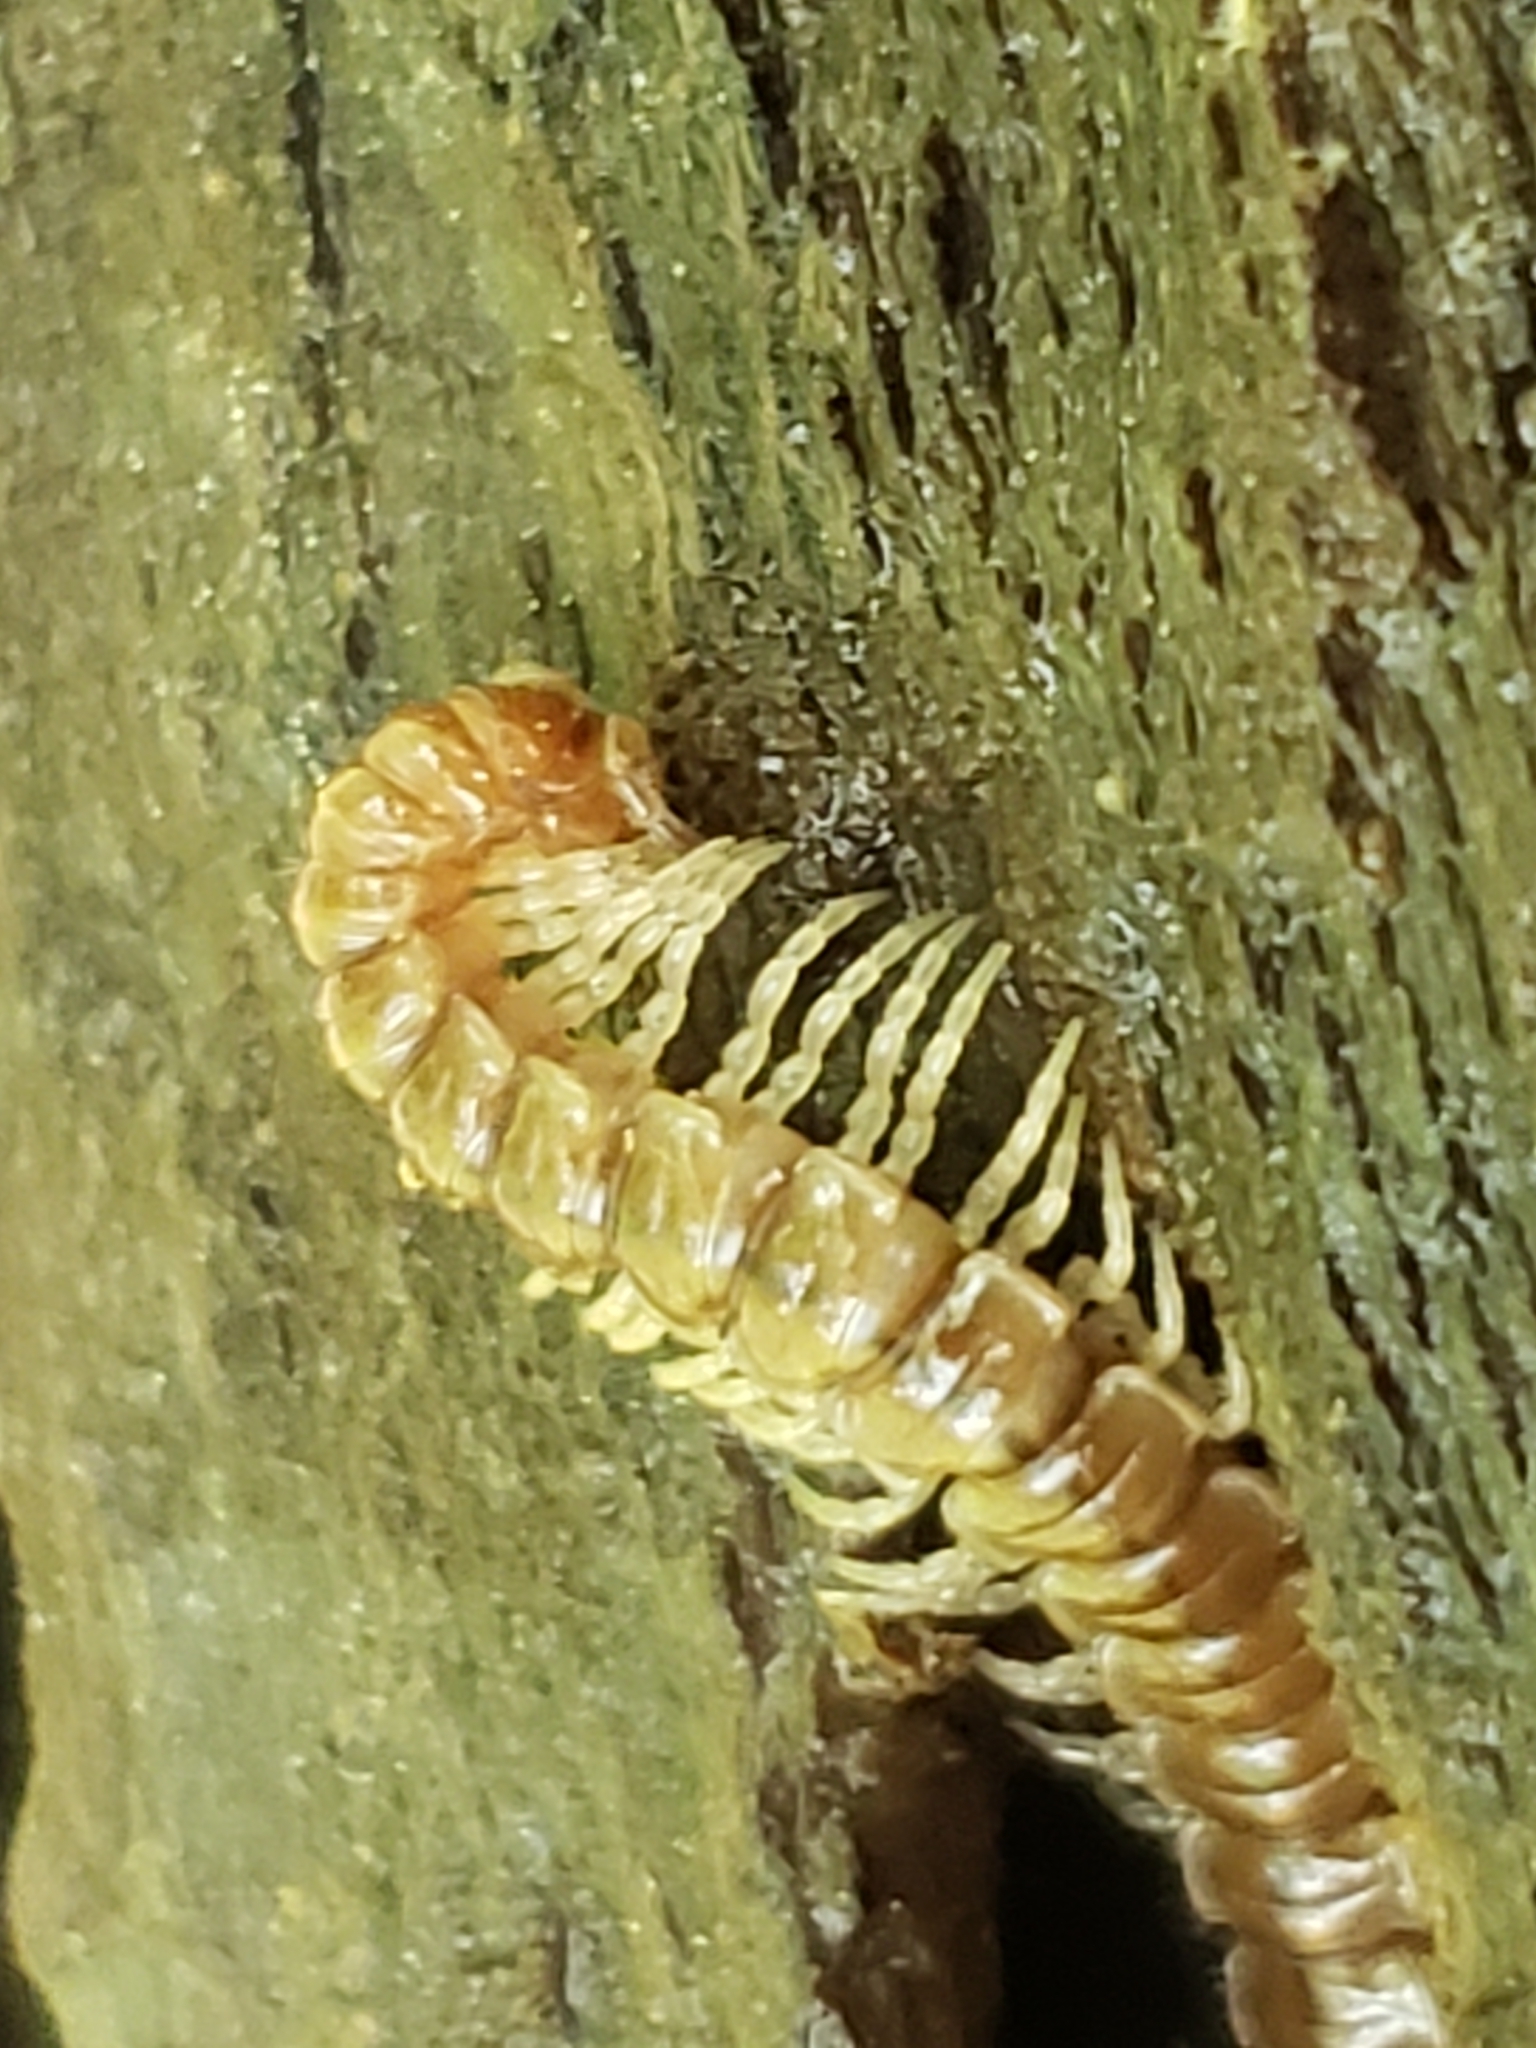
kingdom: Animalia
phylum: Arthropoda
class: Diplopoda
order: Polydesmida
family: Paradoxosomatidae
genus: Oxidus
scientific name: Oxidus gracilis
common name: Greenhouse millipede
